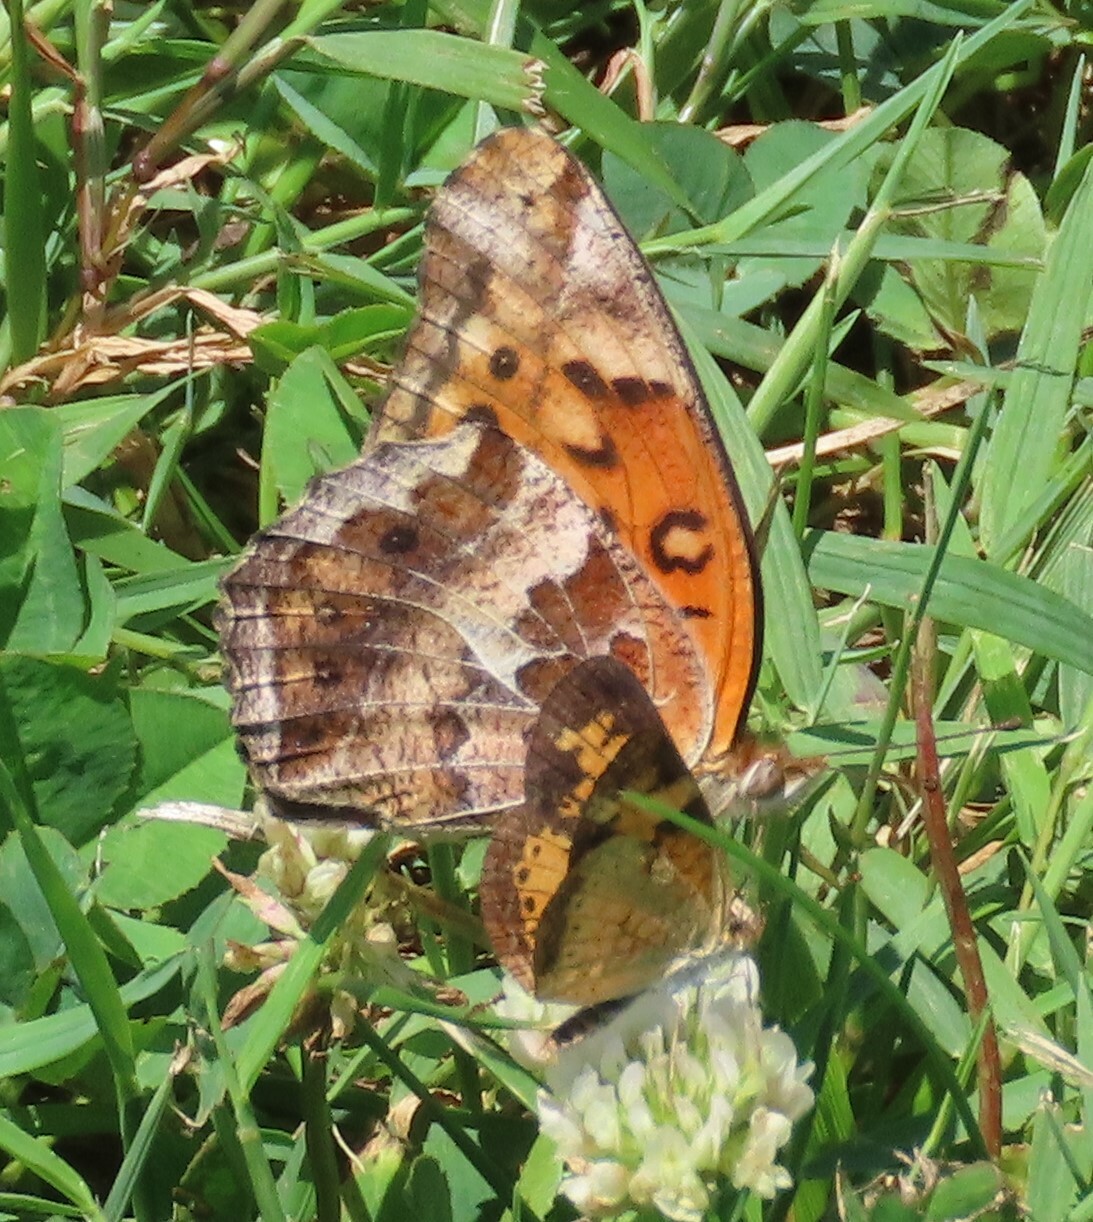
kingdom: Animalia
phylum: Arthropoda
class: Insecta
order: Lepidoptera
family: Nymphalidae
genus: Euptoieta
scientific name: Euptoieta claudia
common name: Variegated fritillary
